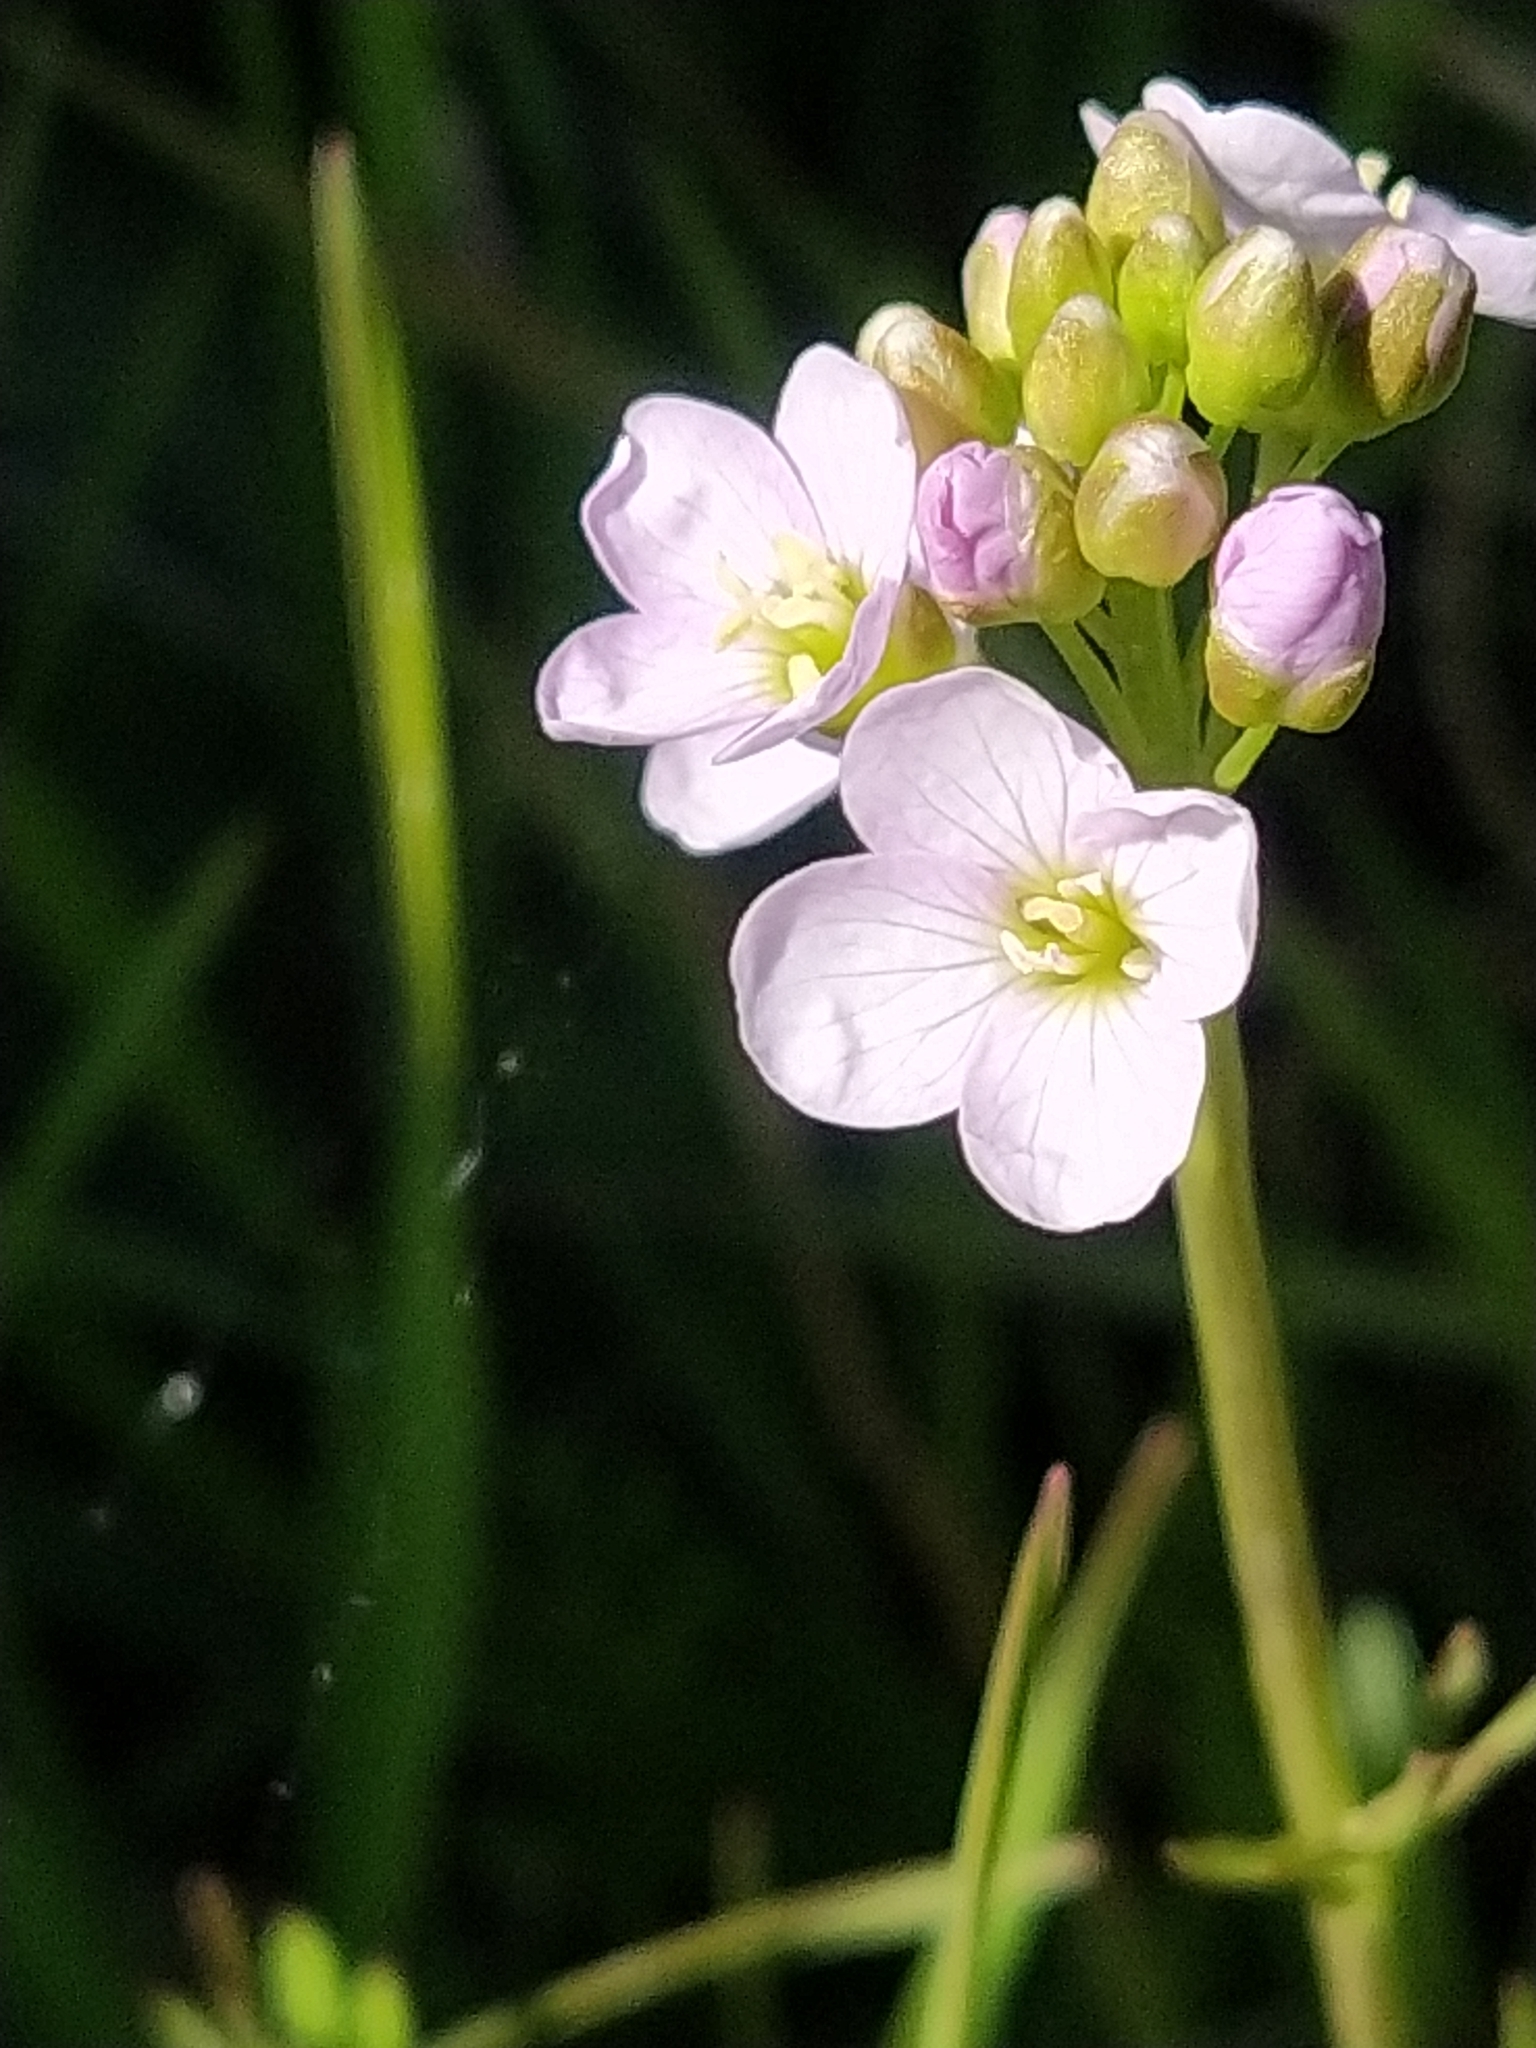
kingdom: Plantae
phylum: Tracheophyta
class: Magnoliopsida
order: Brassicales
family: Brassicaceae
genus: Cardamine
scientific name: Cardamine pratensis
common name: Cuckoo flower
